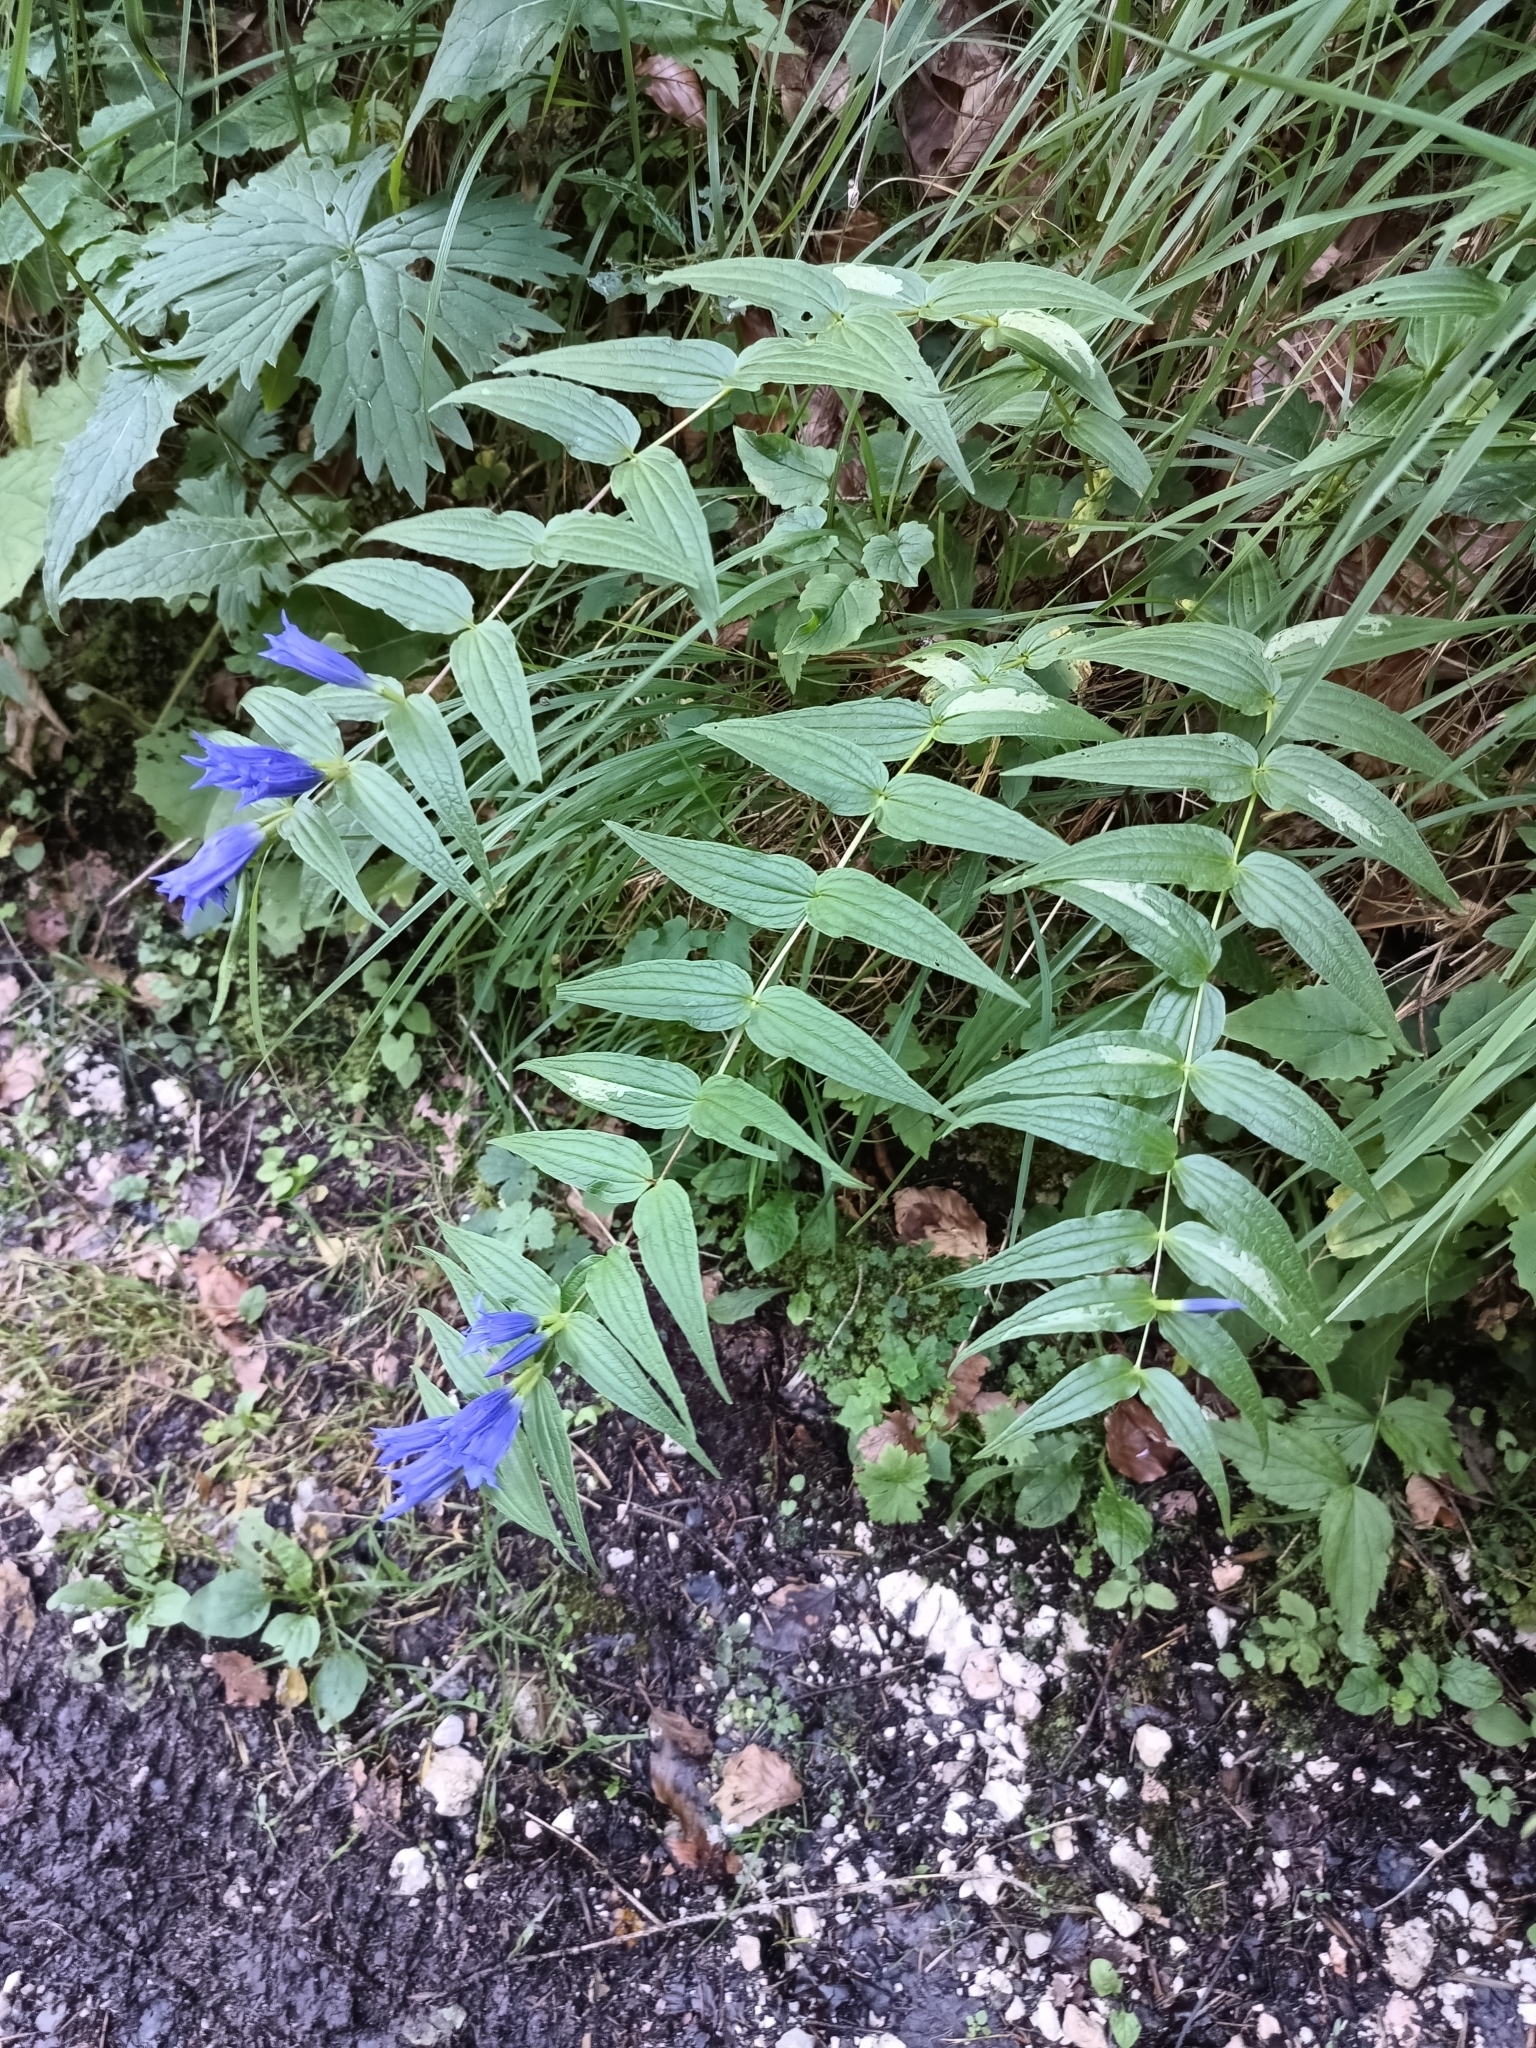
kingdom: Plantae
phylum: Tracheophyta
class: Magnoliopsida
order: Gentianales
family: Gentianaceae
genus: Gentiana
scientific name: Gentiana asclepiadea
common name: Willow gentian
